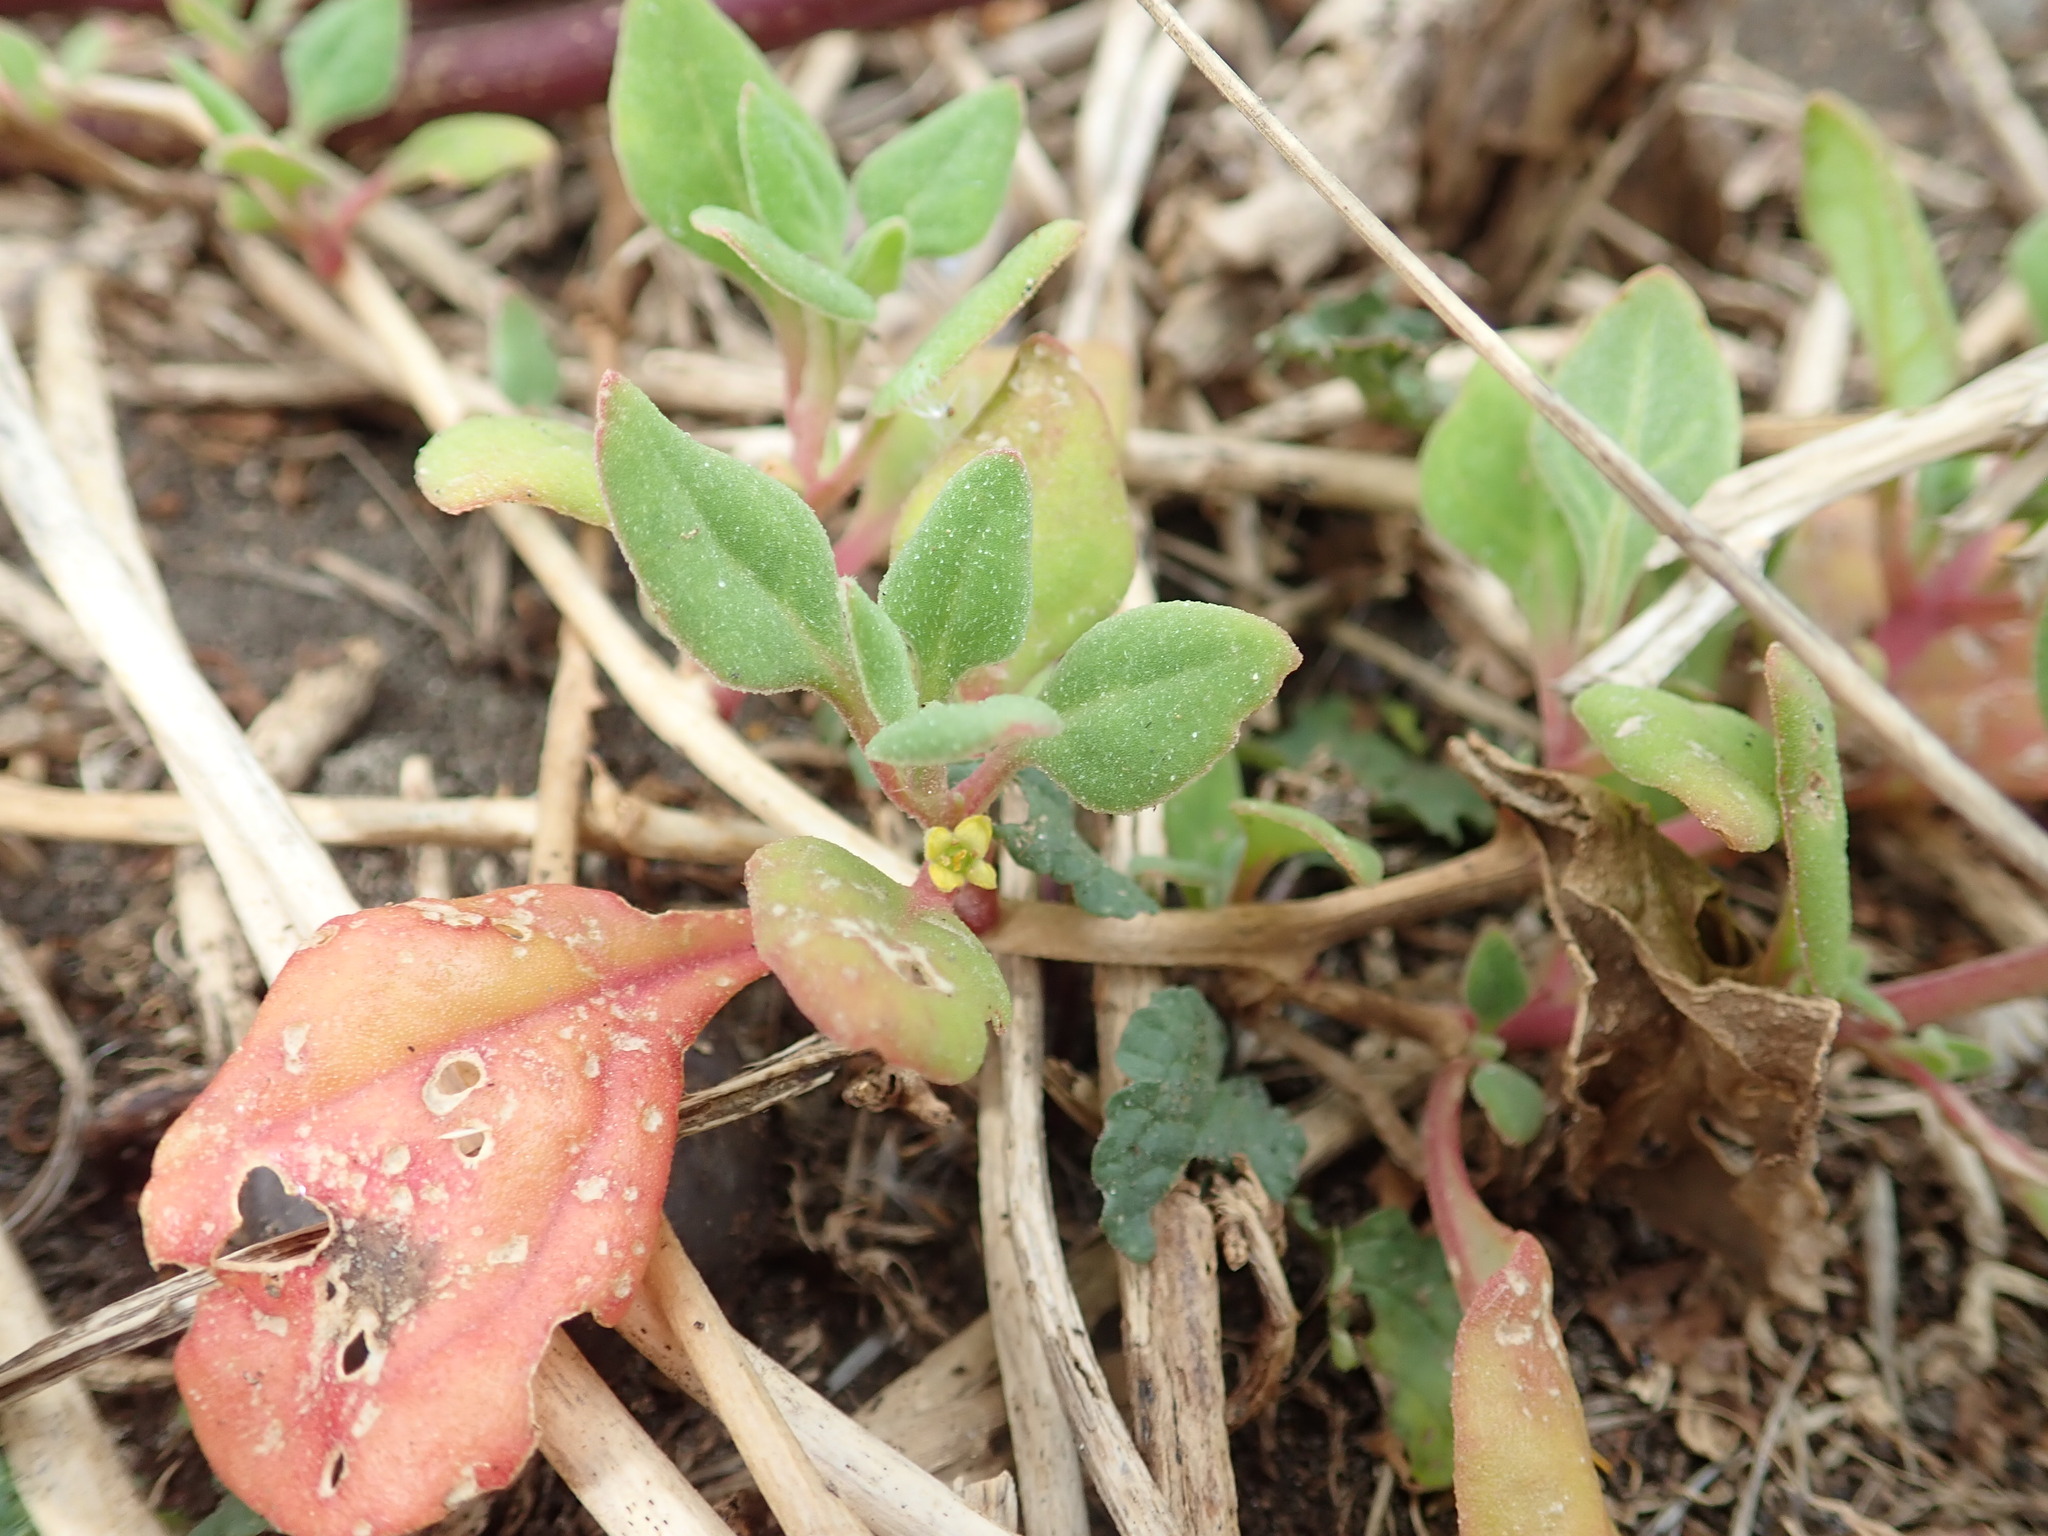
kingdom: Plantae
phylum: Tracheophyta
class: Magnoliopsida
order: Caryophyllales
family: Aizoaceae
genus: Tetragonia
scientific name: Tetragonia implexicoma
